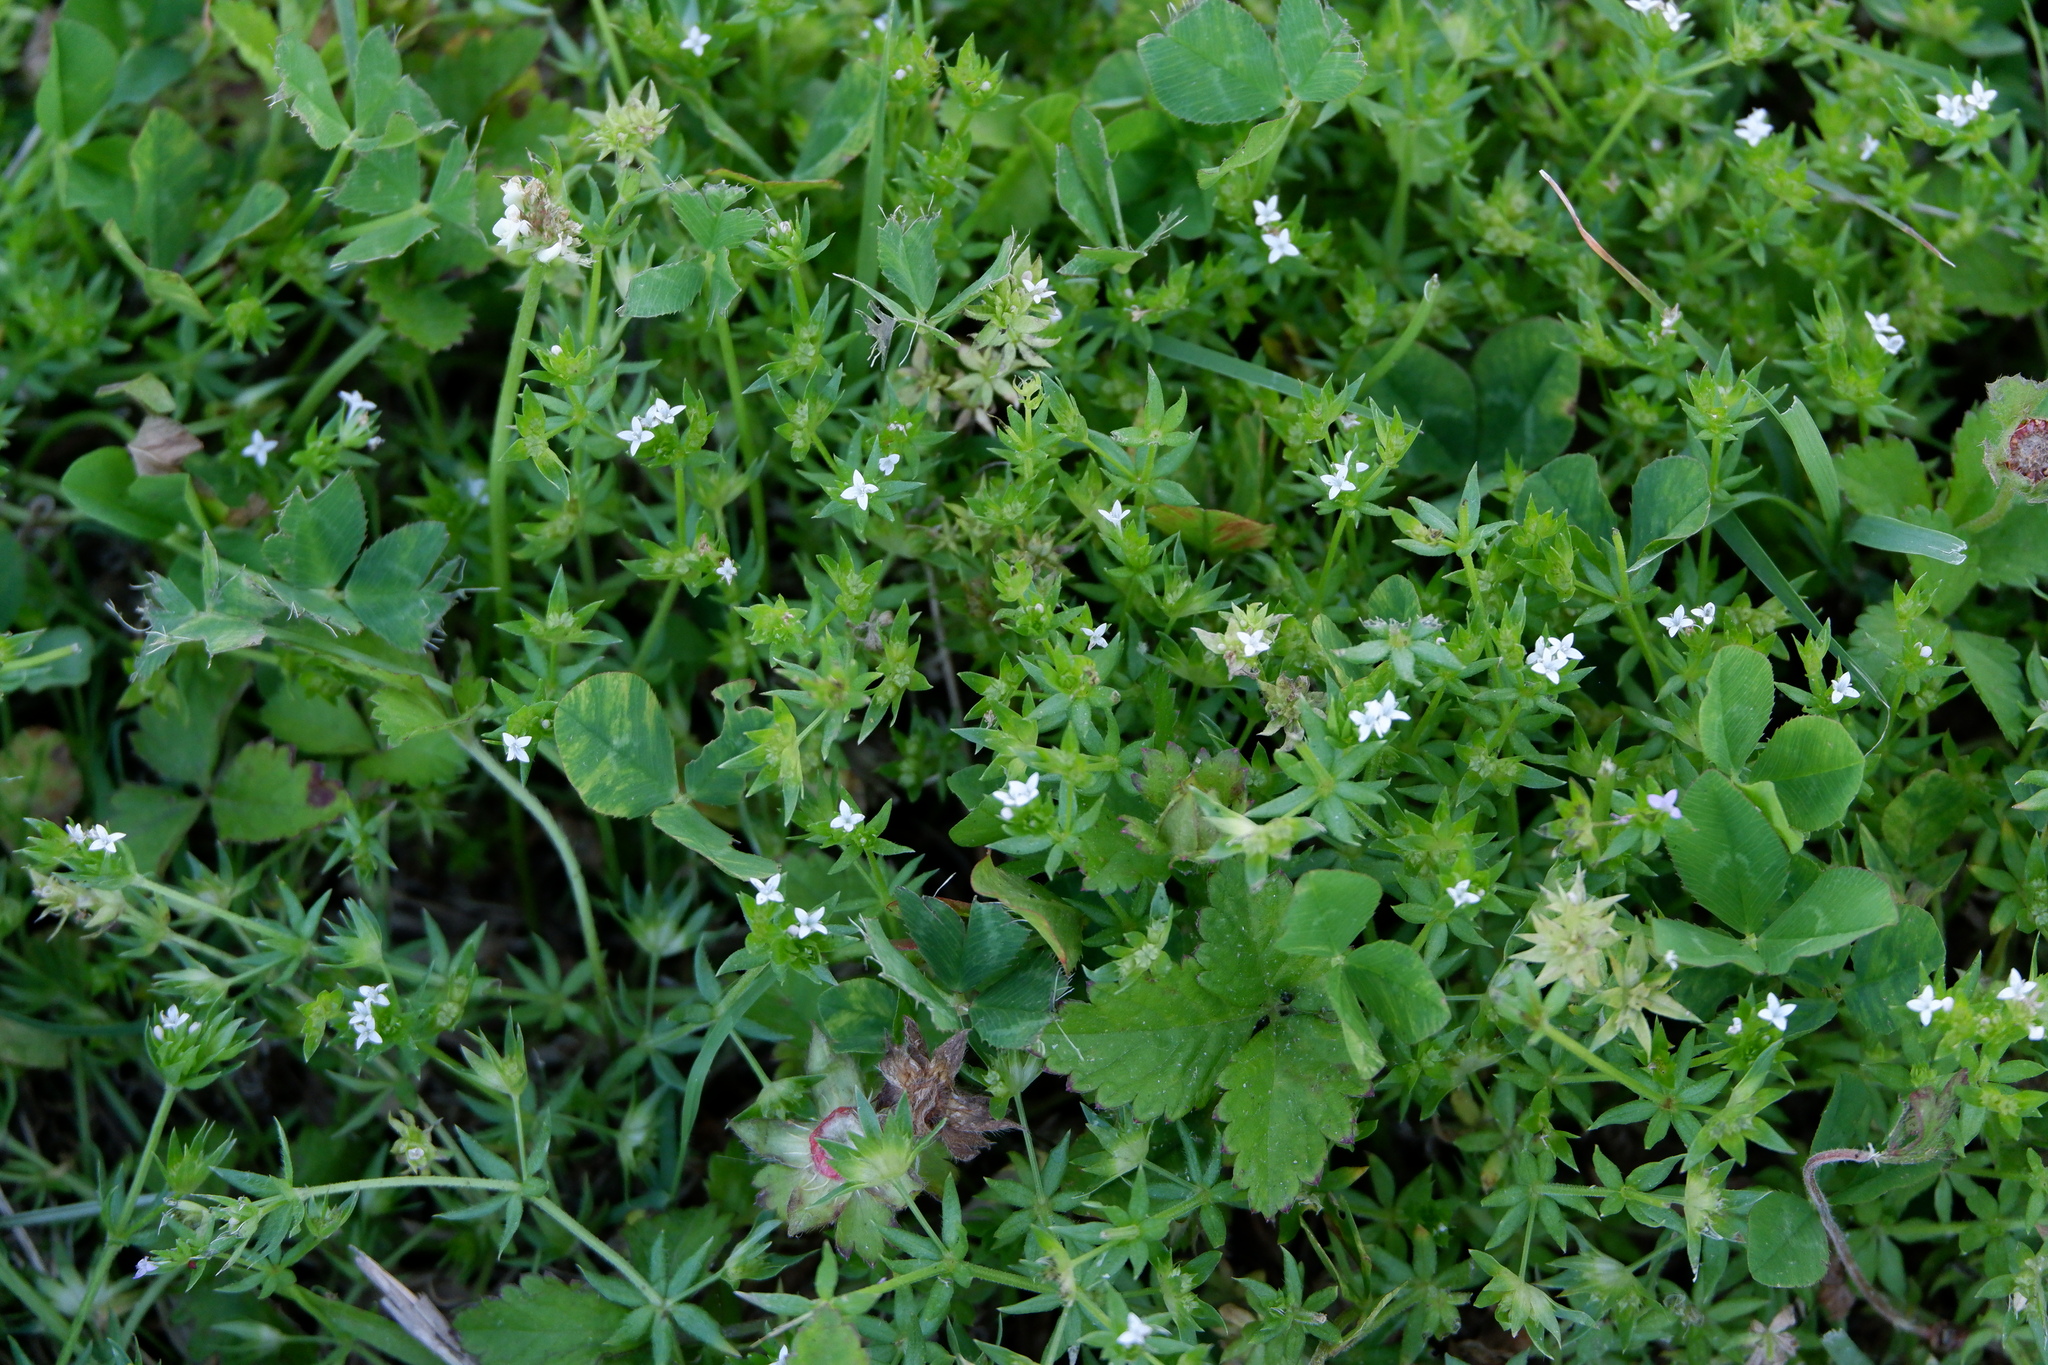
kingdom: Plantae
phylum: Tracheophyta
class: Magnoliopsida
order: Gentianales
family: Rubiaceae
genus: Sherardia
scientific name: Sherardia arvensis
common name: Field madder
